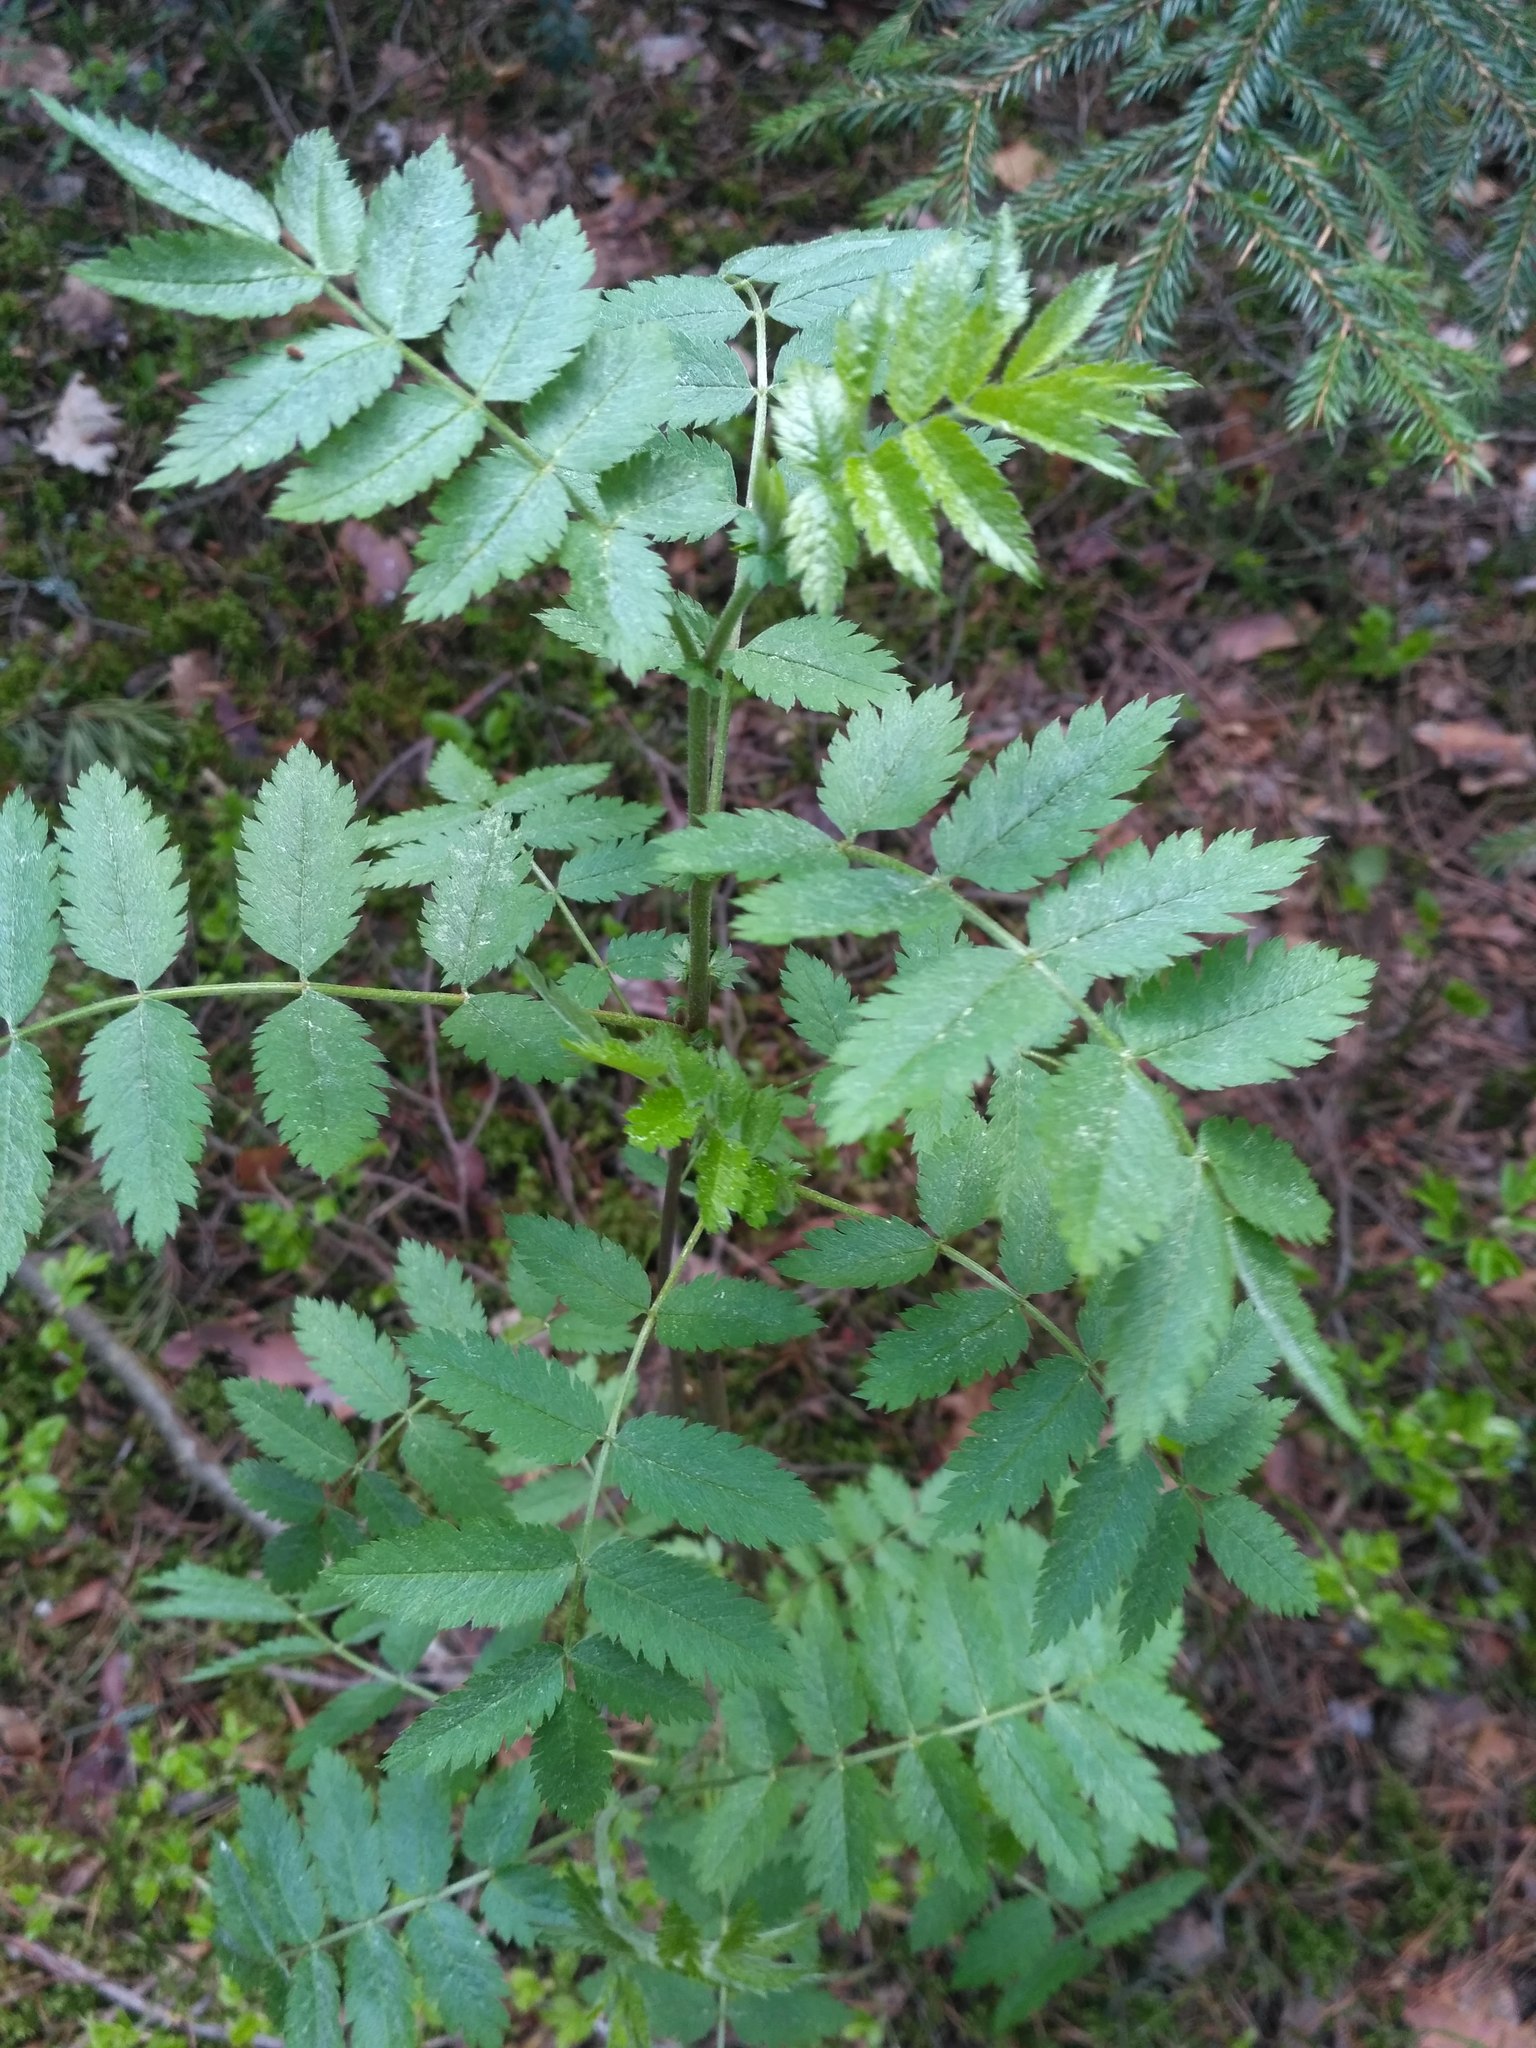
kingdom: Plantae
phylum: Tracheophyta
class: Magnoliopsida
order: Rosales
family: Rosaceae
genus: Sorbus
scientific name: Sorbus aucuparia
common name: Rowan
